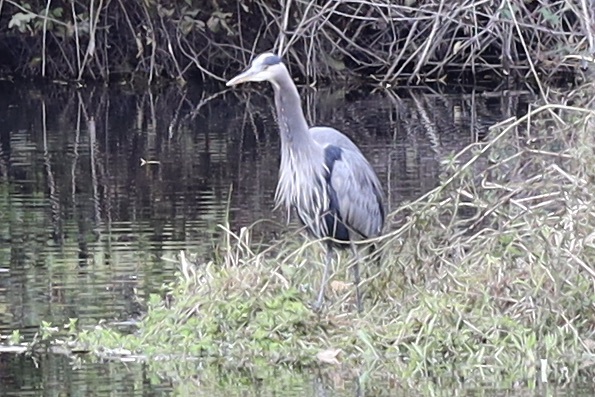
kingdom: Animalia
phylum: Chordata
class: Aves
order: Pelecaniformes
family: Ardeidae
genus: Ardea
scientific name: Ardea herodias
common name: Great blue heron
